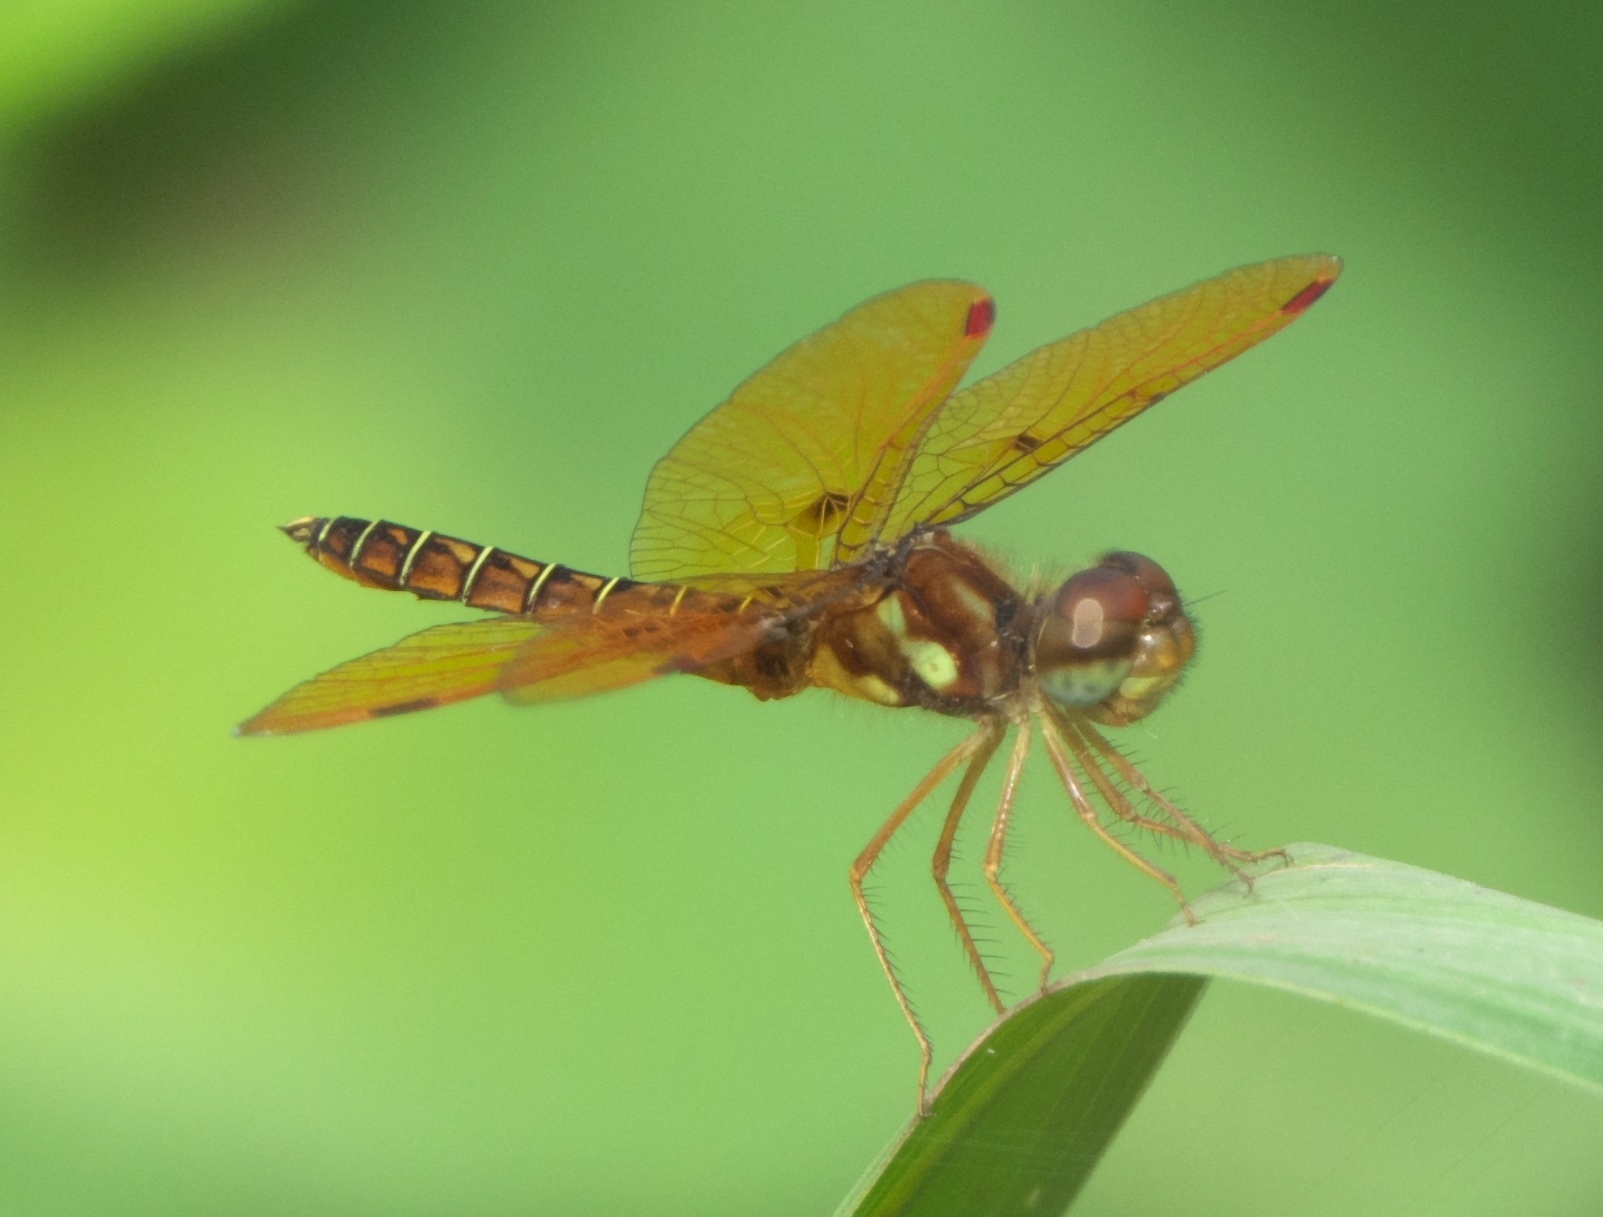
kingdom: Animalia
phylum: Arthropoda
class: Insecta
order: Odonata
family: Libellulidae
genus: Perithemis
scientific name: Perithemis tenera
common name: Eastern amberwing
